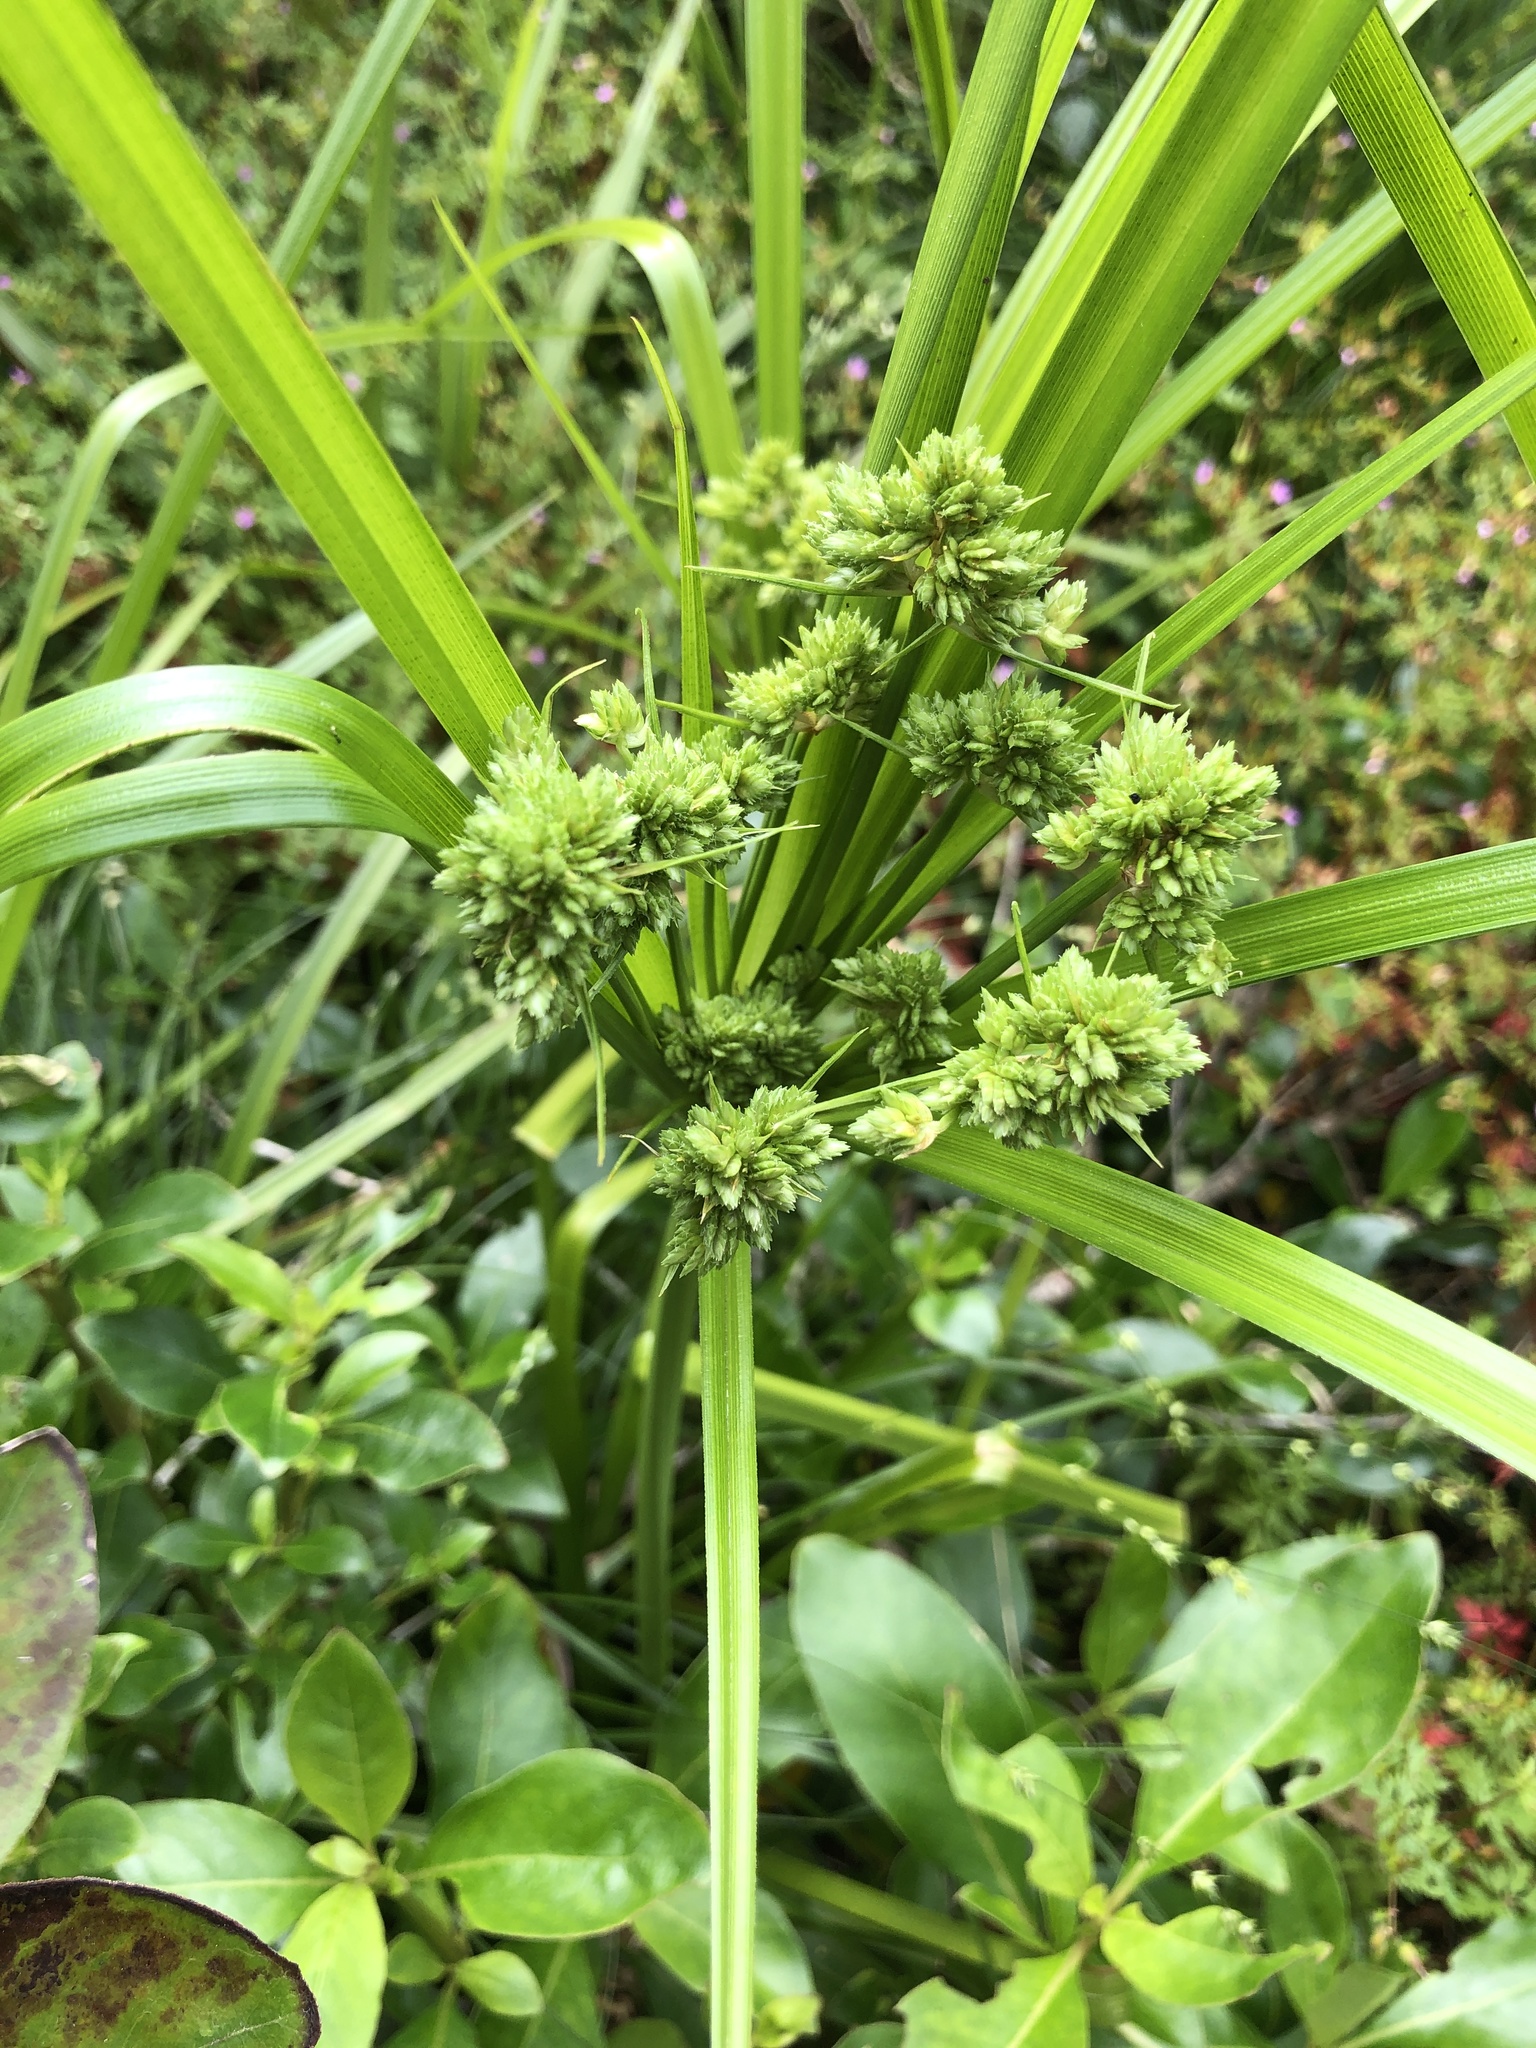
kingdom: Plantae
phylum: Tracheophyta
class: Liliopsida
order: Poales
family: Cyperaceae
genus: Cyperus
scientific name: Cyperus eragrostis
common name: Tall flatsedge
